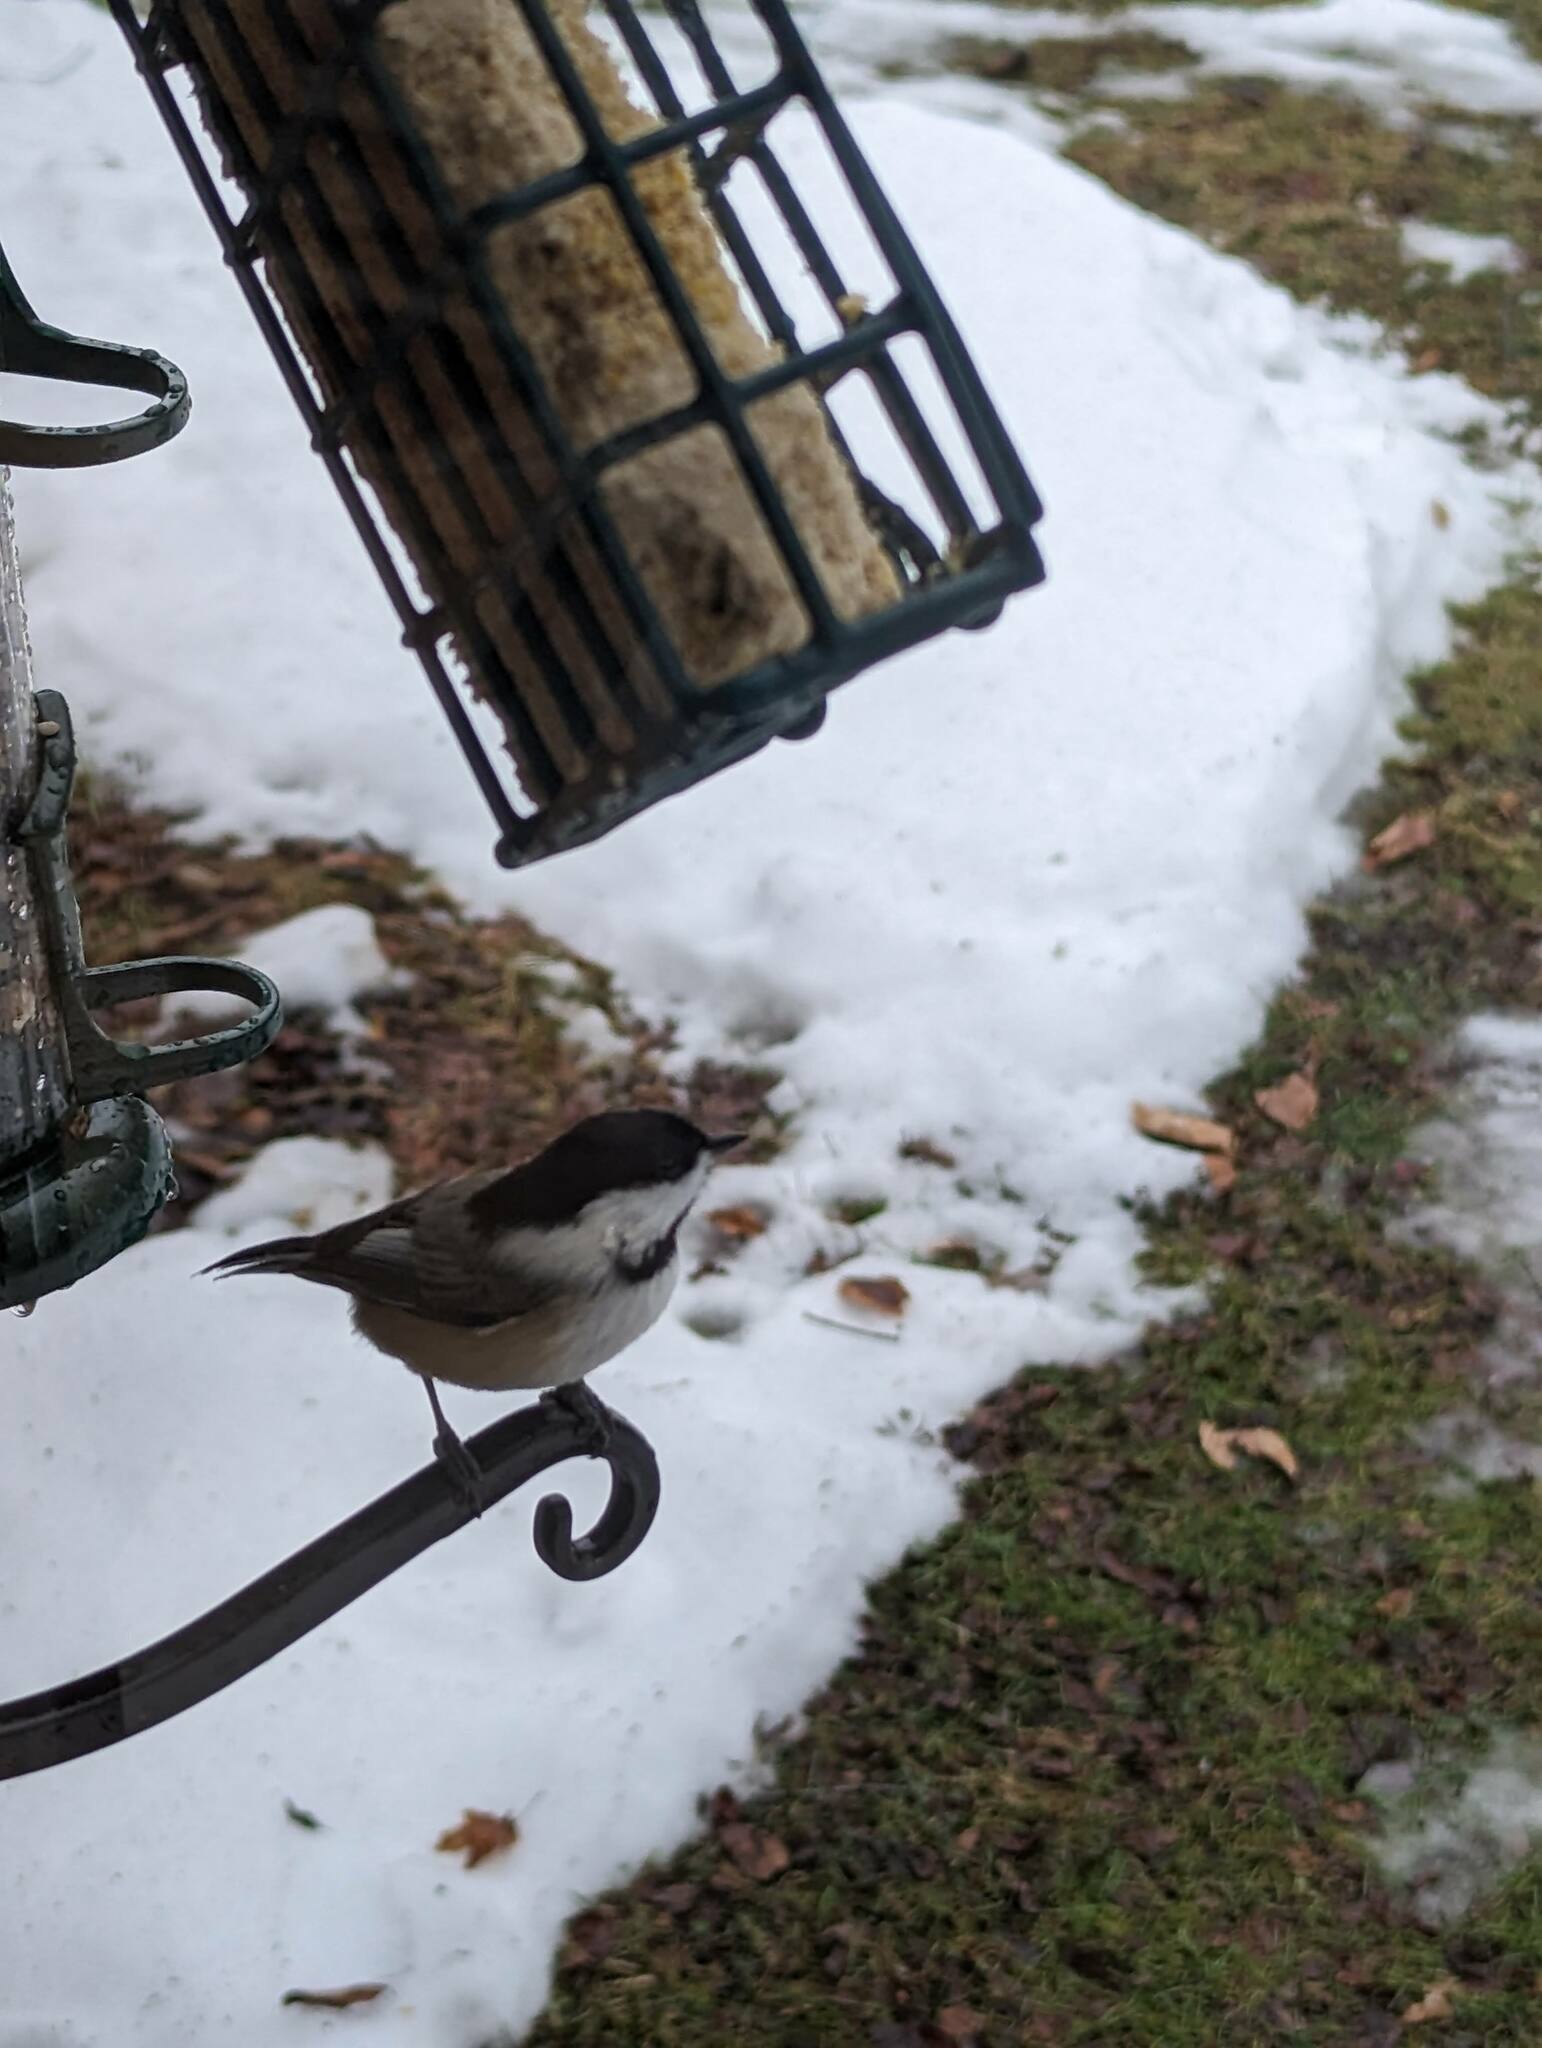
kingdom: Animalia
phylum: Chordata
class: Aves
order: Passeriformes
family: Paridae
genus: Poecile
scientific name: Poecile atricapillus
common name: Black-capped chickadee
